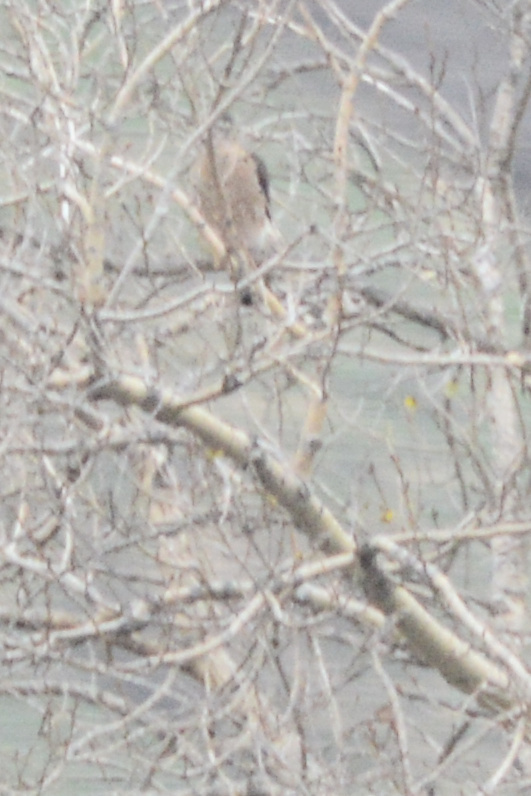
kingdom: Animalia
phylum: Chordata
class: Aves
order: Accipitriformes
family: Accipitridae
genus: Accipiter
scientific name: Accipiter
